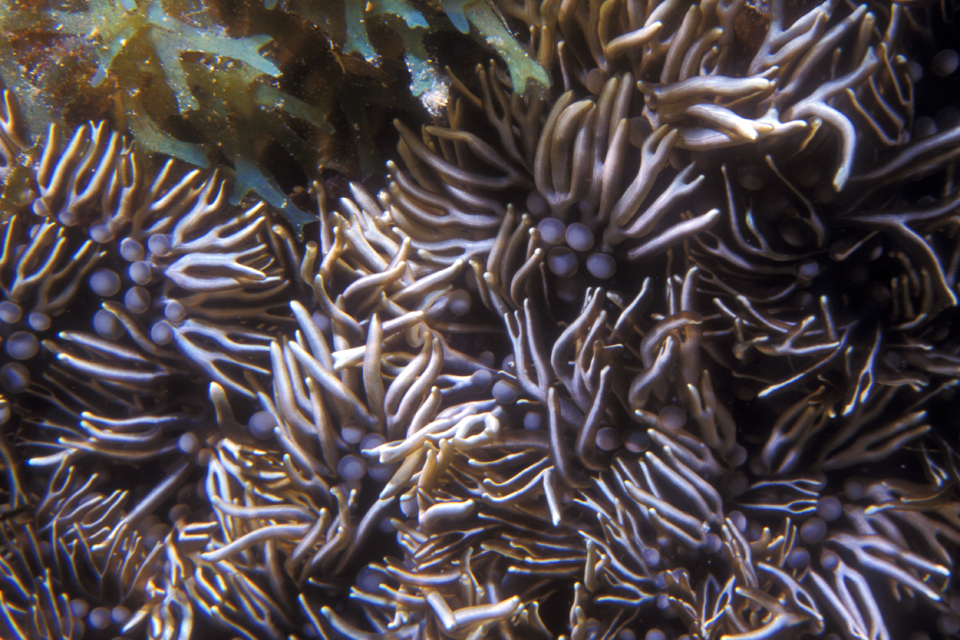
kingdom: Animalia
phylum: Cnidaria
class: Anthozoa
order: Actiniaria
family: Aliciidae
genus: Lebrunia
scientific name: Lebrunia neglecta
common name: Branching anemone
